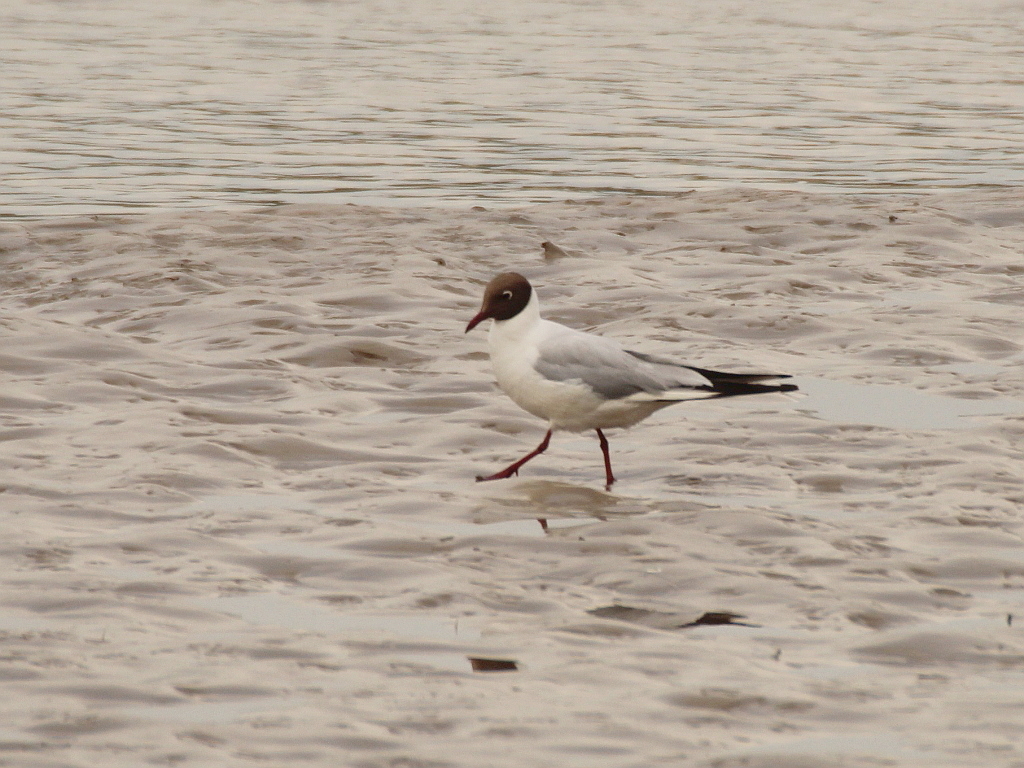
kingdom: Animalia
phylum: Chordata
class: Aves
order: Charadriiformes
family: Laridae
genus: Chroicocephalus
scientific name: Chroicocephalus ridibundus
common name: Black-headed gull
